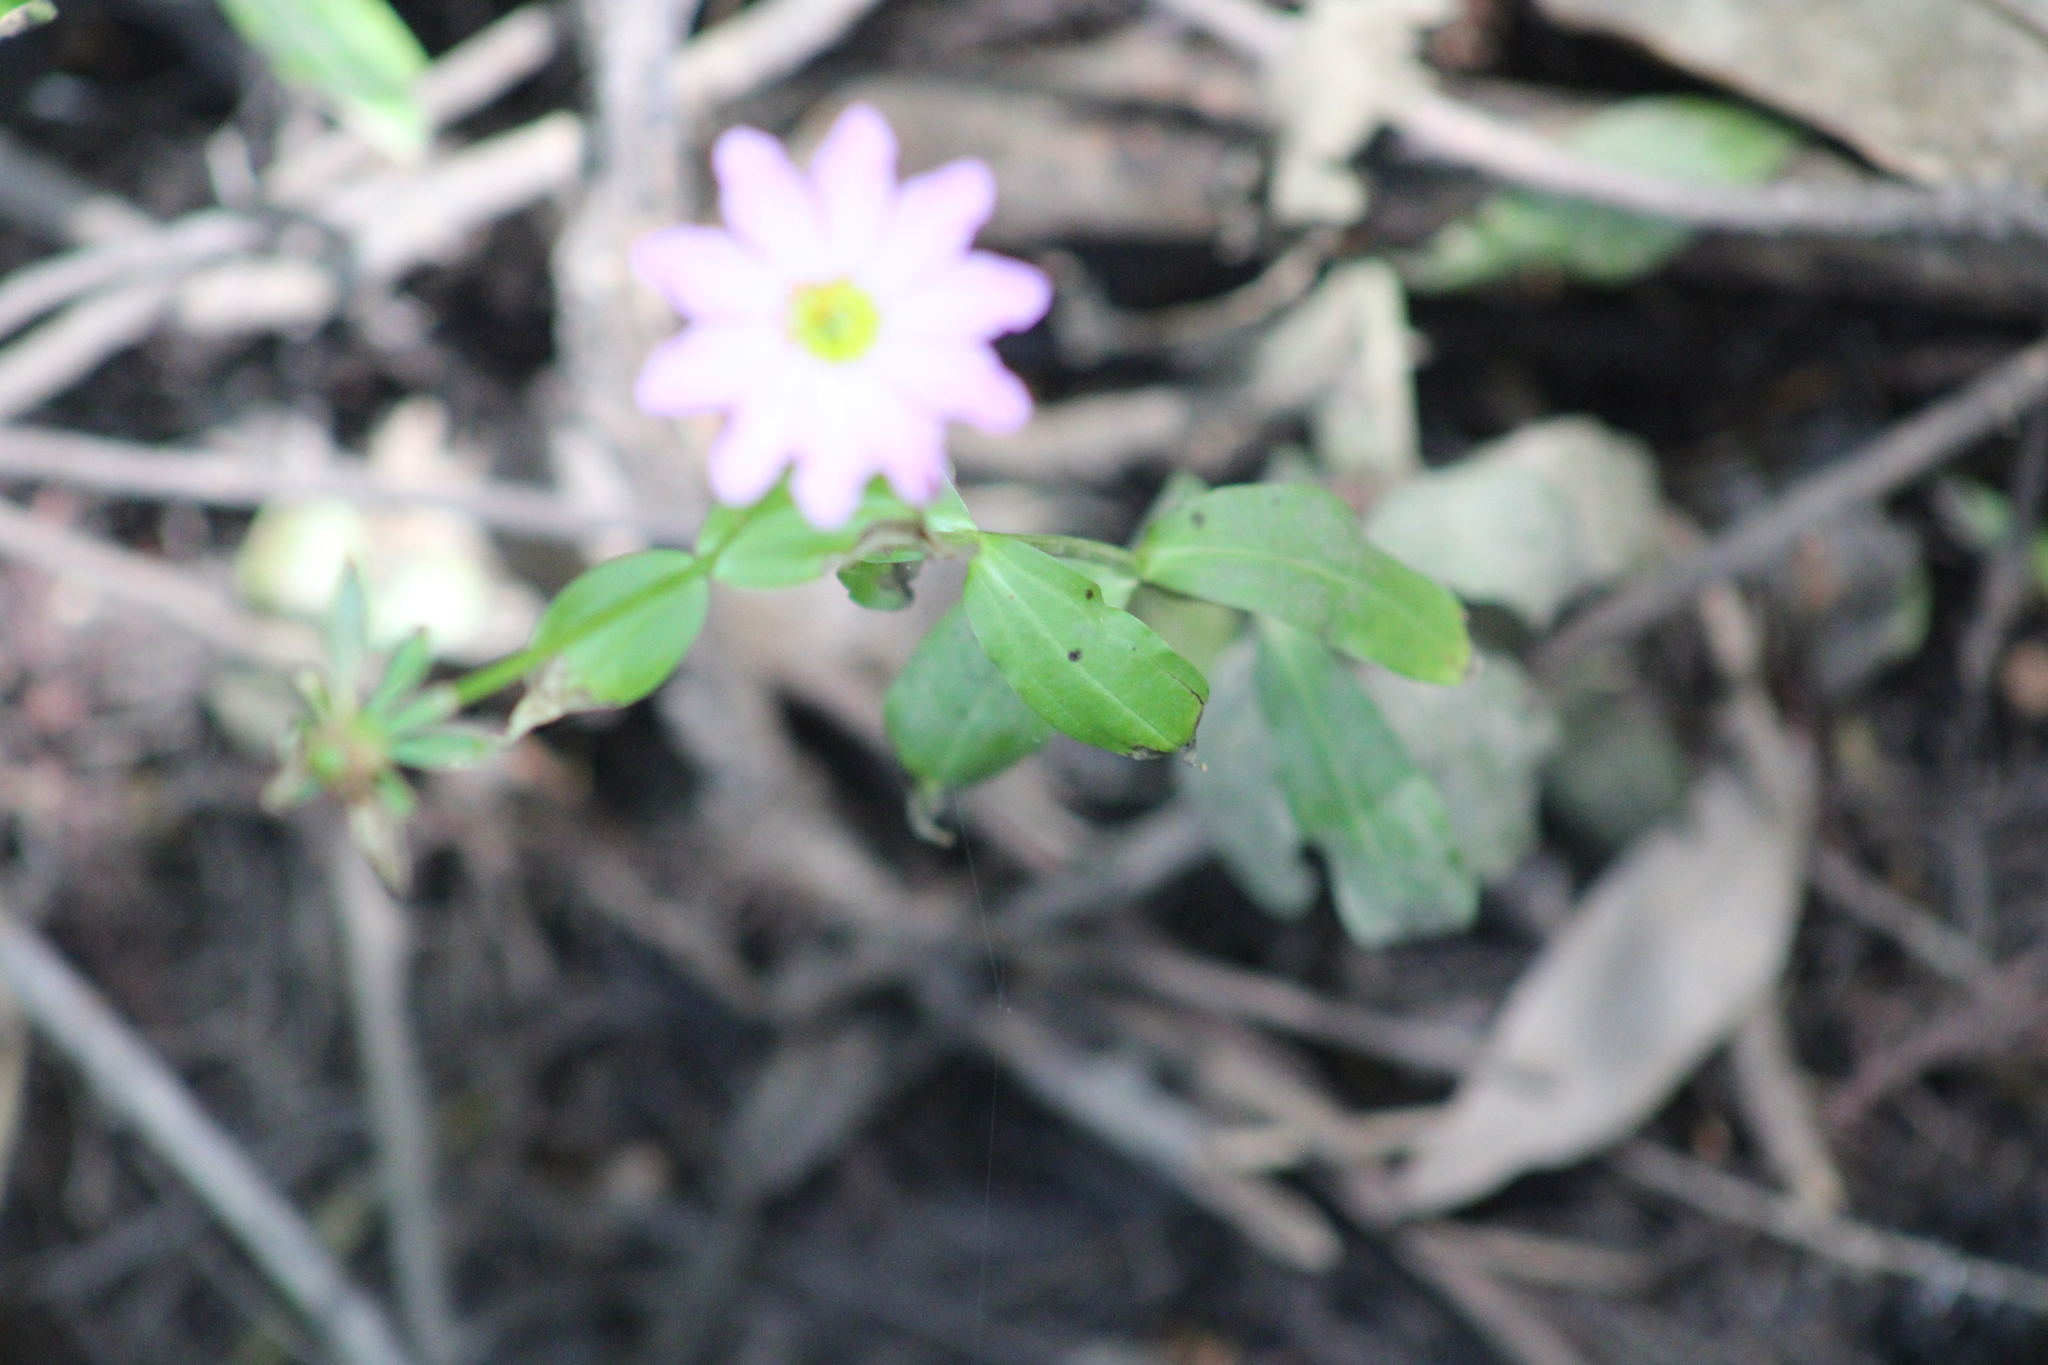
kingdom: Plantae
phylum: Tracheophyta
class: Magnoliopsida
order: Gentianales
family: Gentianaceae
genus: Sabatia
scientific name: Sabatia foliosa
